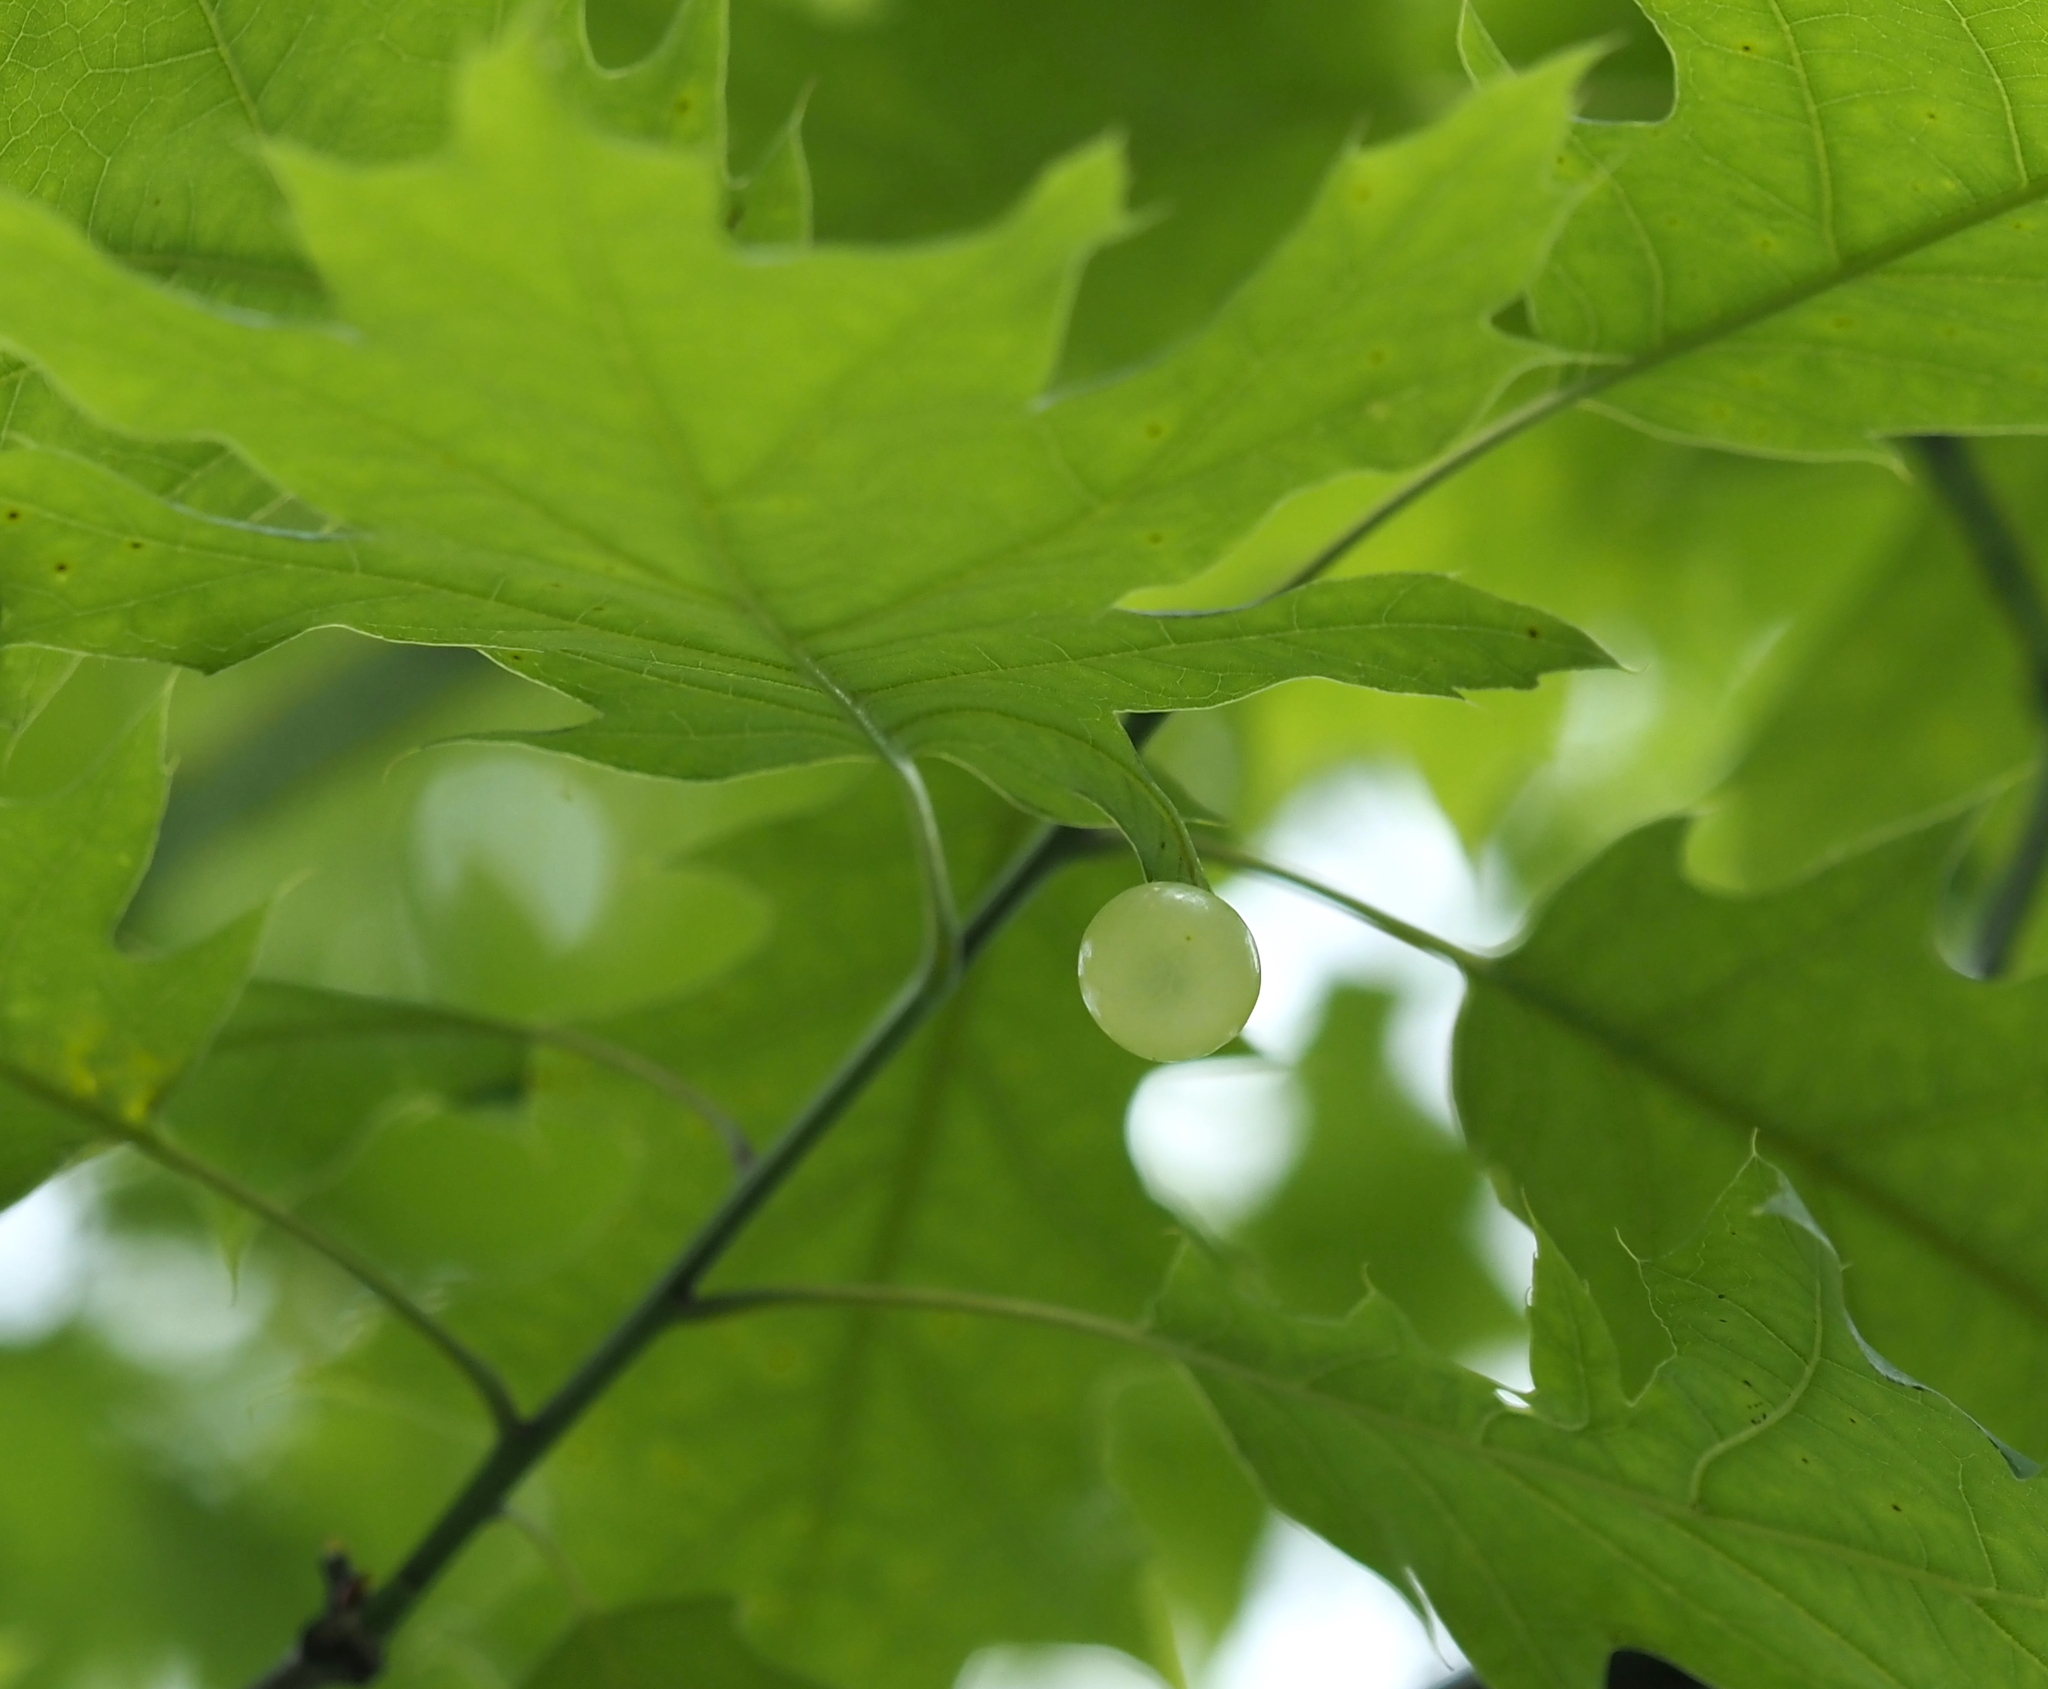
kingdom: Animalia
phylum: Arthropoda
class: Insecta
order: Hymenoptera
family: Cynipidae
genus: Amphibolips
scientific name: Amphibolips
